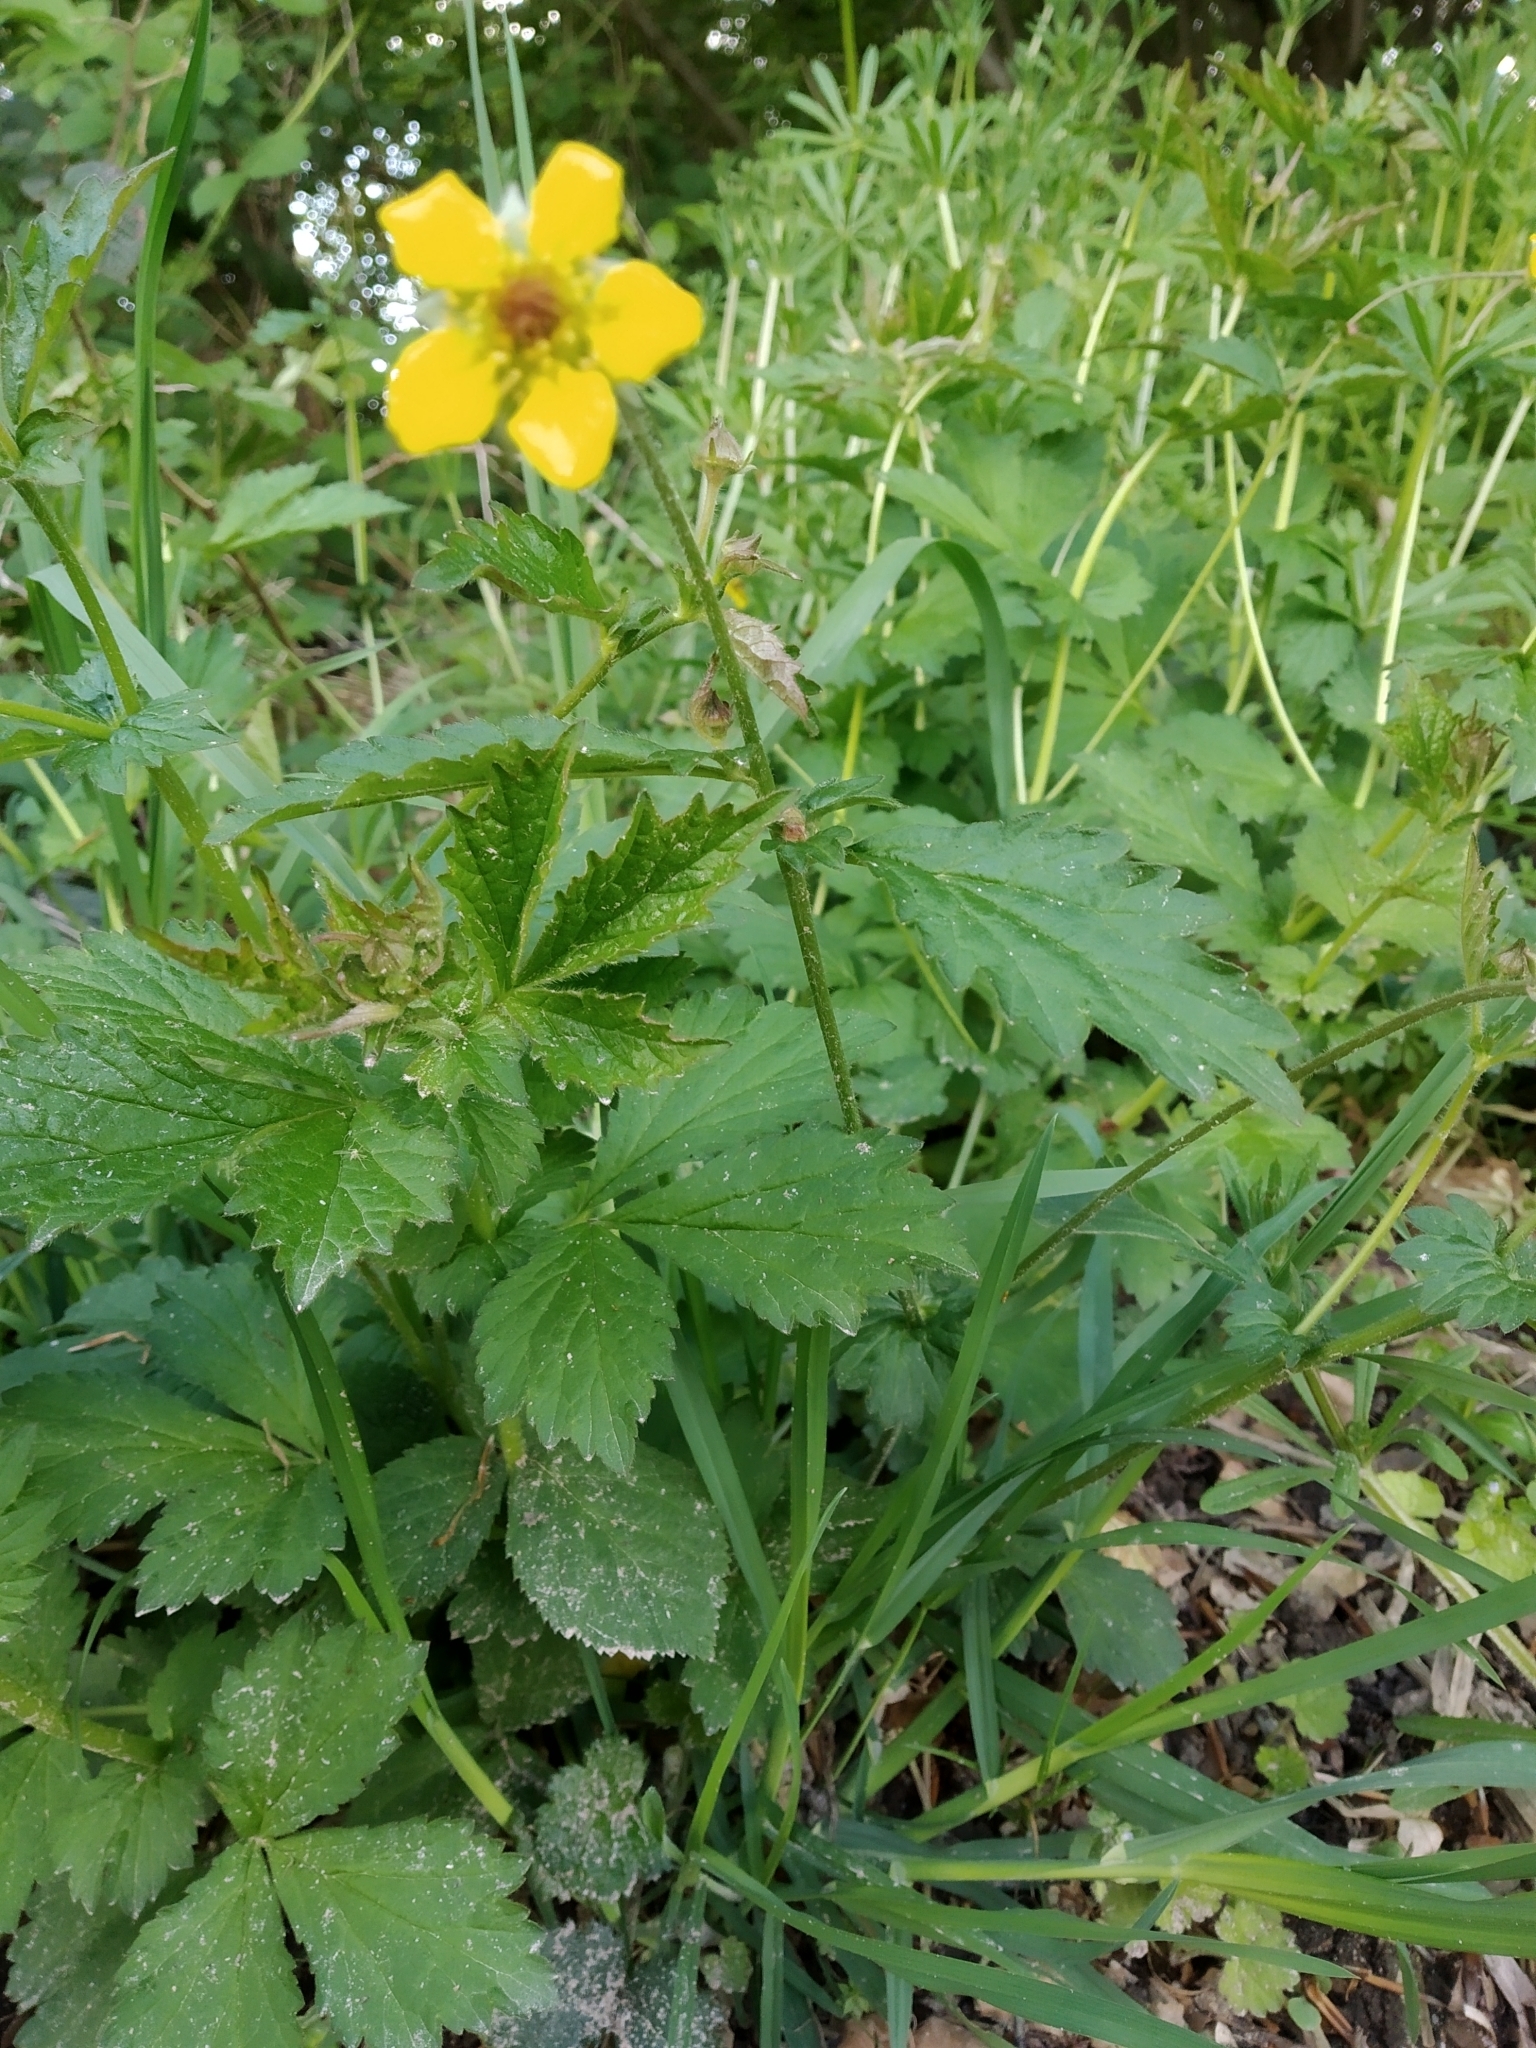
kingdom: Plantae
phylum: Tracheophyta
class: Magnoliopsida
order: Rosales
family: Rosaceae
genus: Geum
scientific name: Geum urbanum
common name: Wood avens
